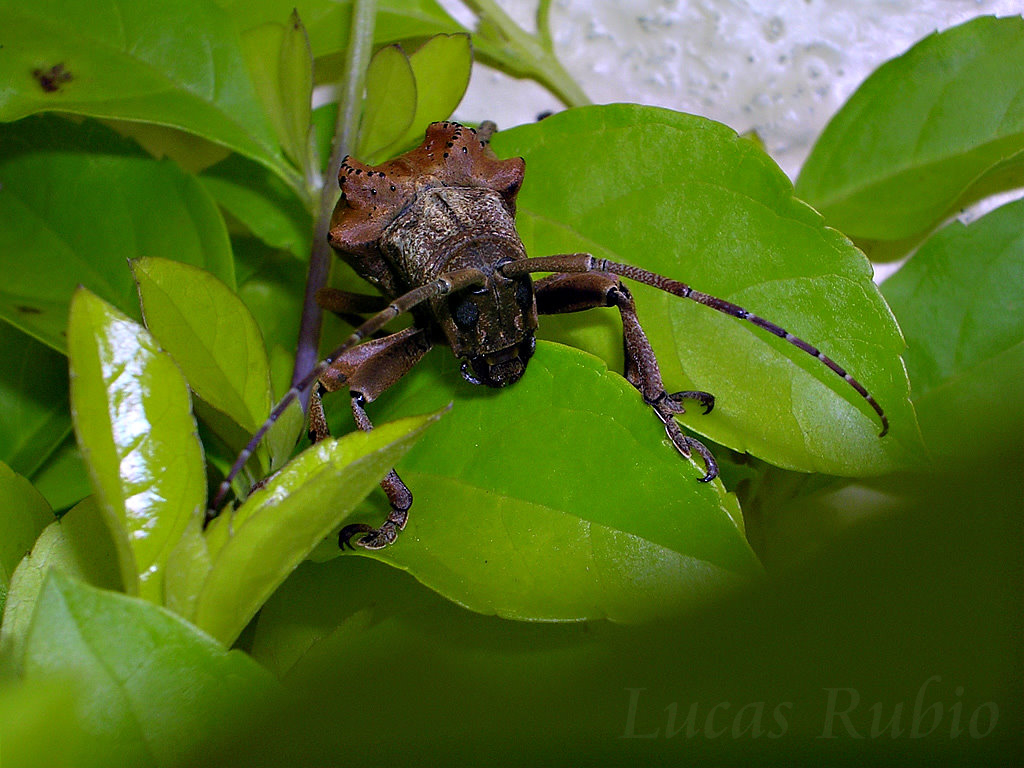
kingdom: Animalia
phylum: Arthropoda
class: Insecta
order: Coleoptera
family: Cerambycidae
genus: Hypselomus
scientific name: Hypselomus cristatus
